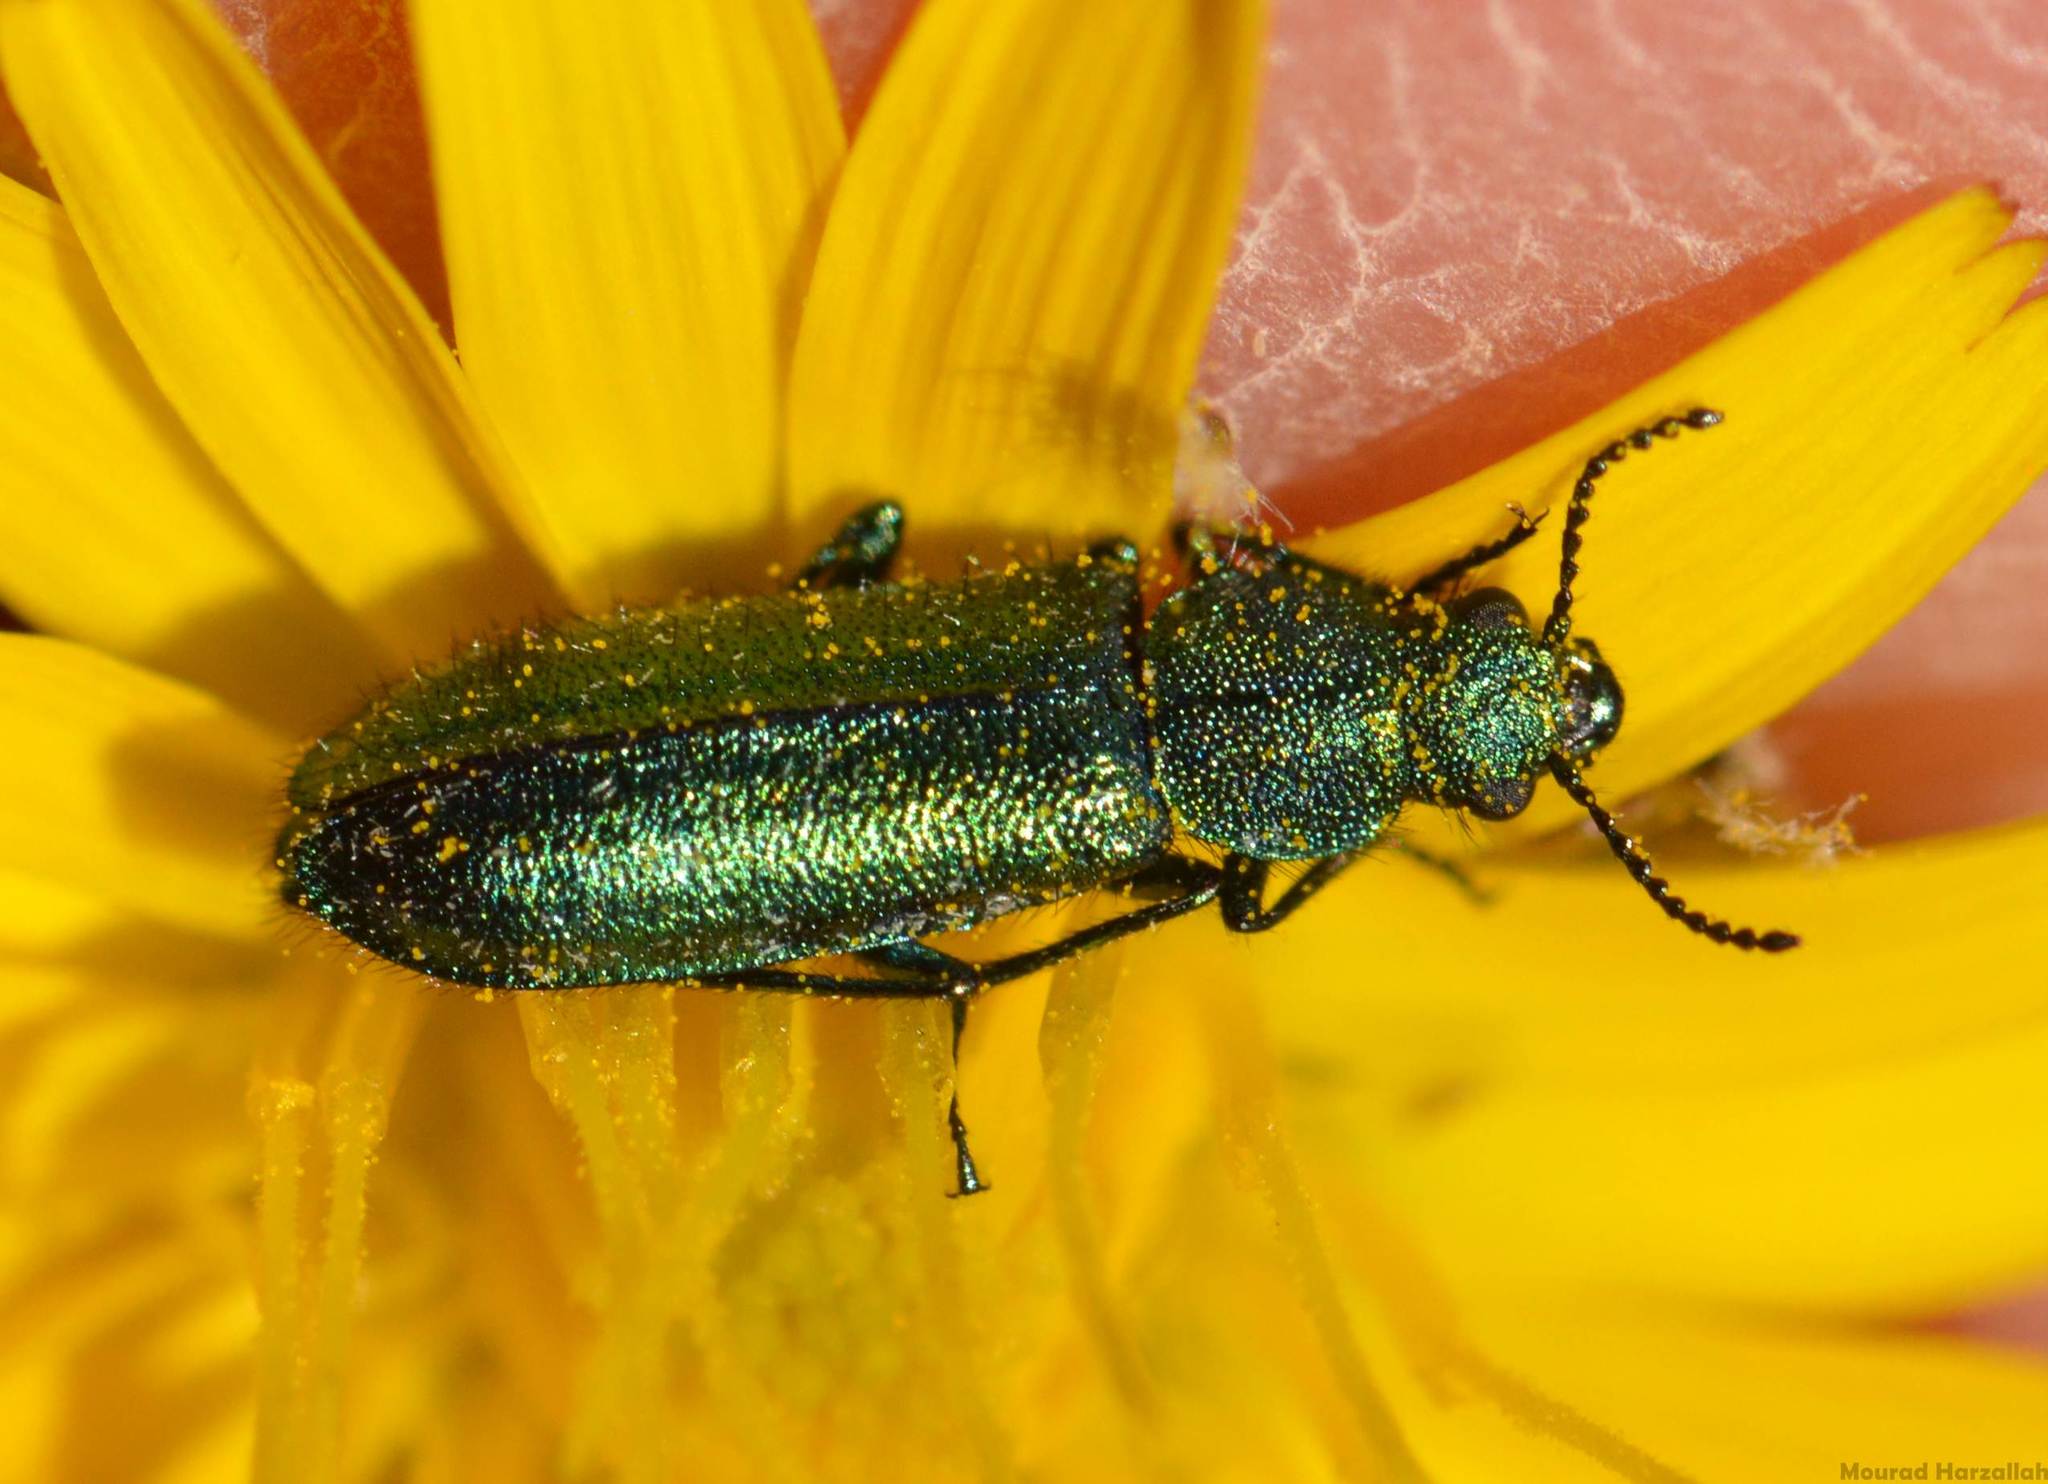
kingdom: Animalia
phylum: Arthropoda
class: Insecta
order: Coleoptera
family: Dasytidae
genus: Psilothrix
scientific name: Psilothrix viridicoerulea
